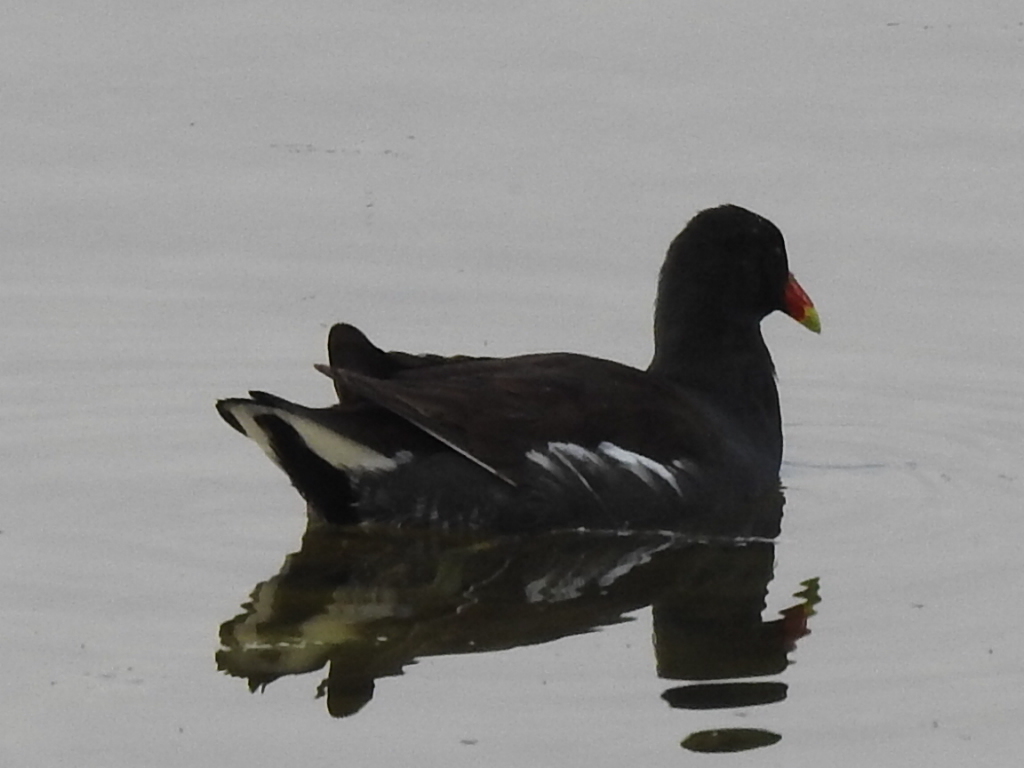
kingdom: Animalia
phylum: Chordata
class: Aves
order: Gruiformes
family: Rallidae
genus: Gallinula
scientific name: Gallinula chloropus
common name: Common moorhen
